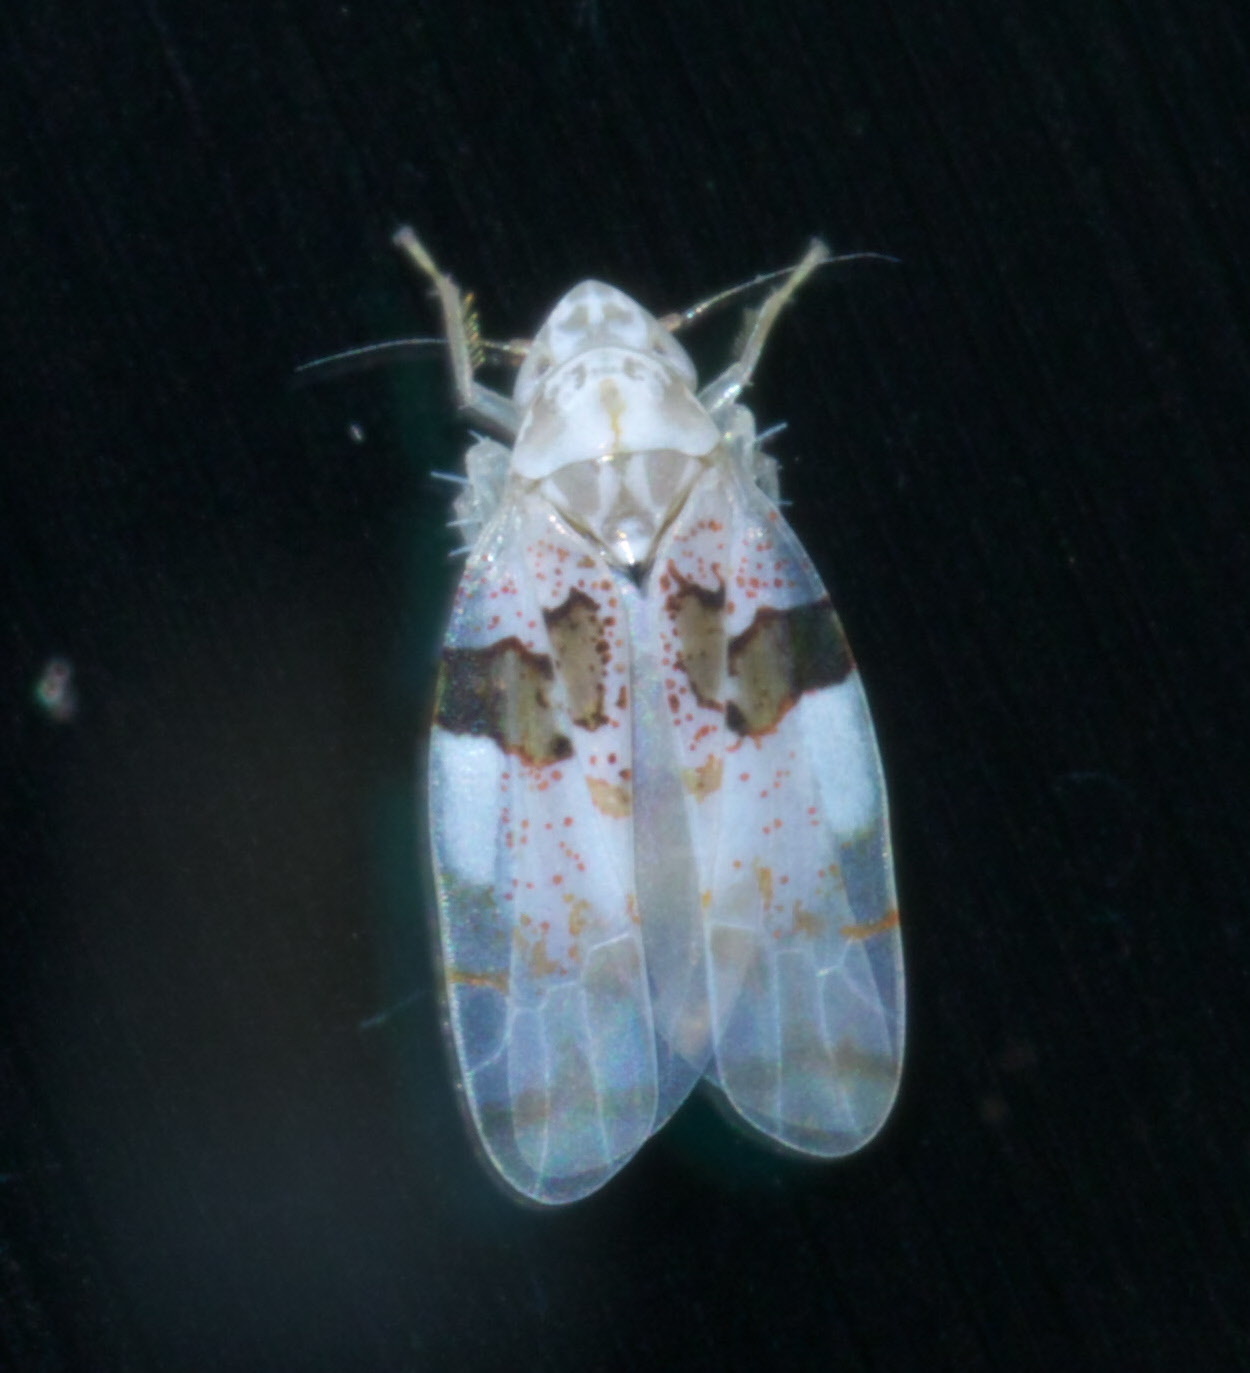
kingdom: Animalia
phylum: Arthropoda
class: Insecta
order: Hemiptera
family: Cicadellidae
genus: Hymetta
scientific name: Hymetta balteata
